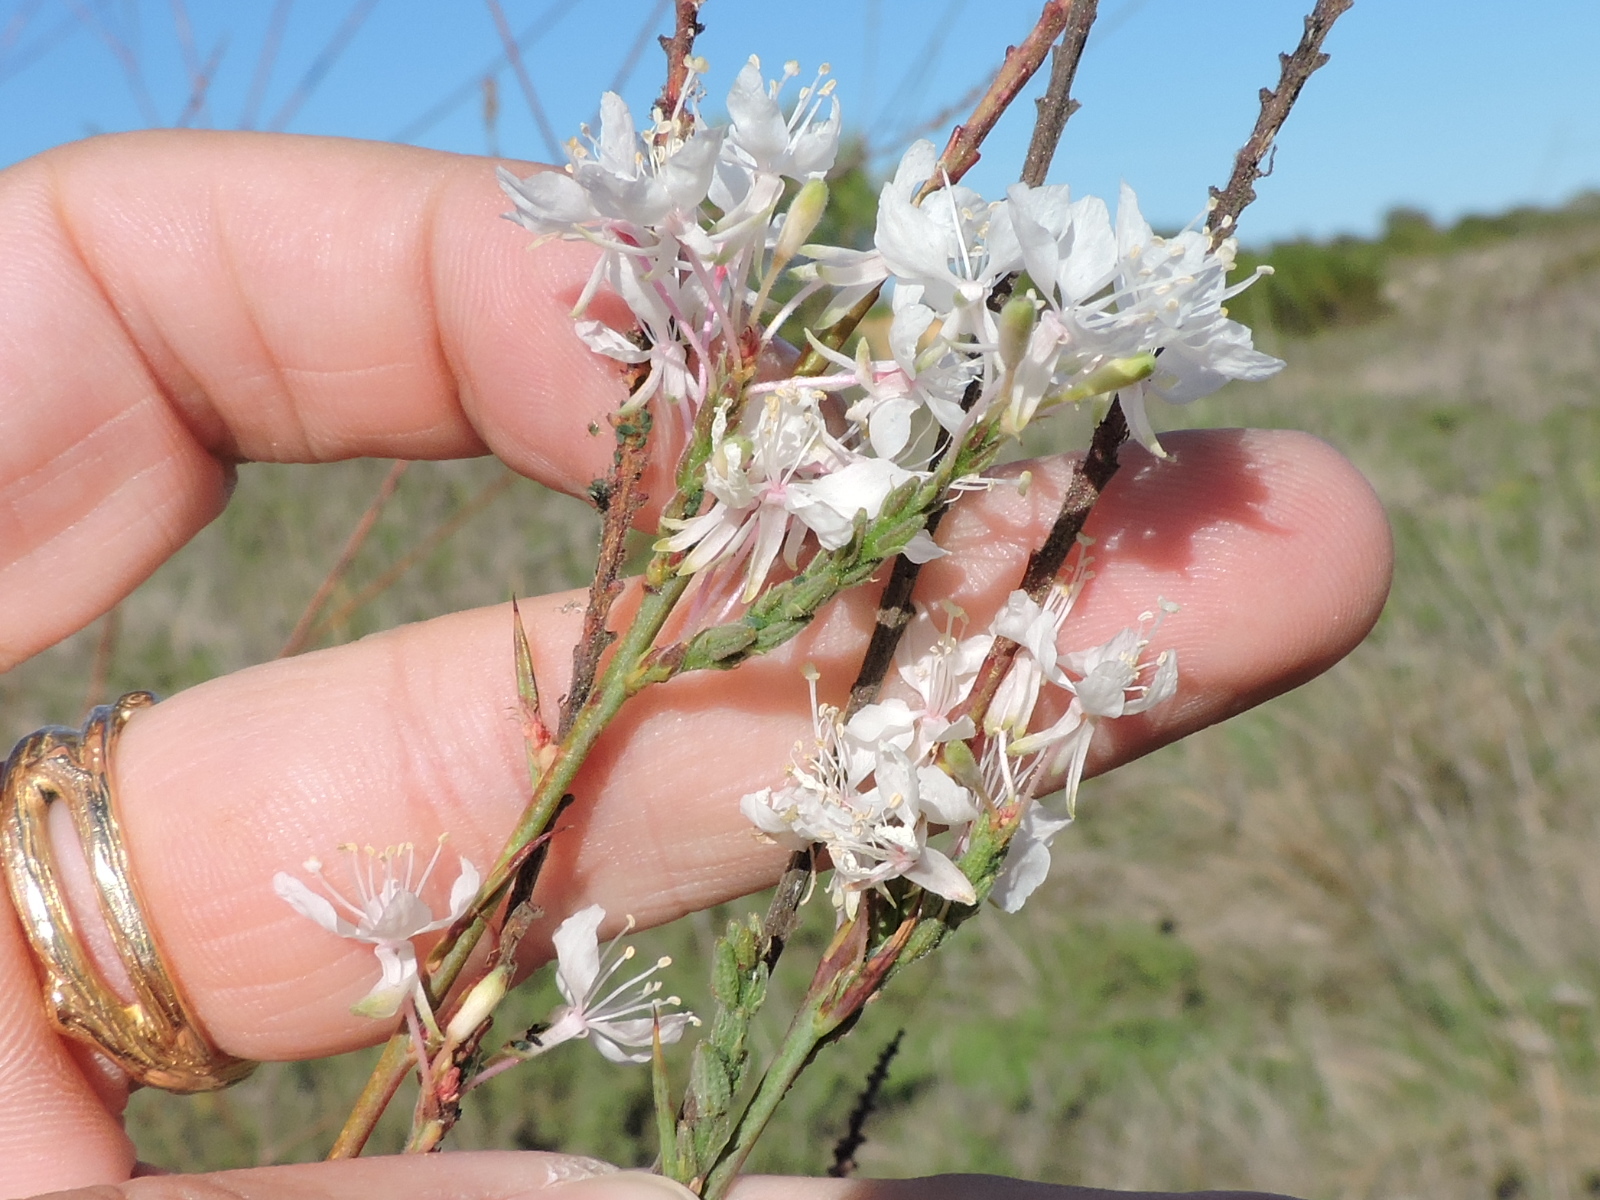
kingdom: Plantae
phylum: Tracheophyta
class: Magnoliopsida
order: Myrtales
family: Onagraceae
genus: Oenothera
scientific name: Oenothera glaucifolia
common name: False gaura
